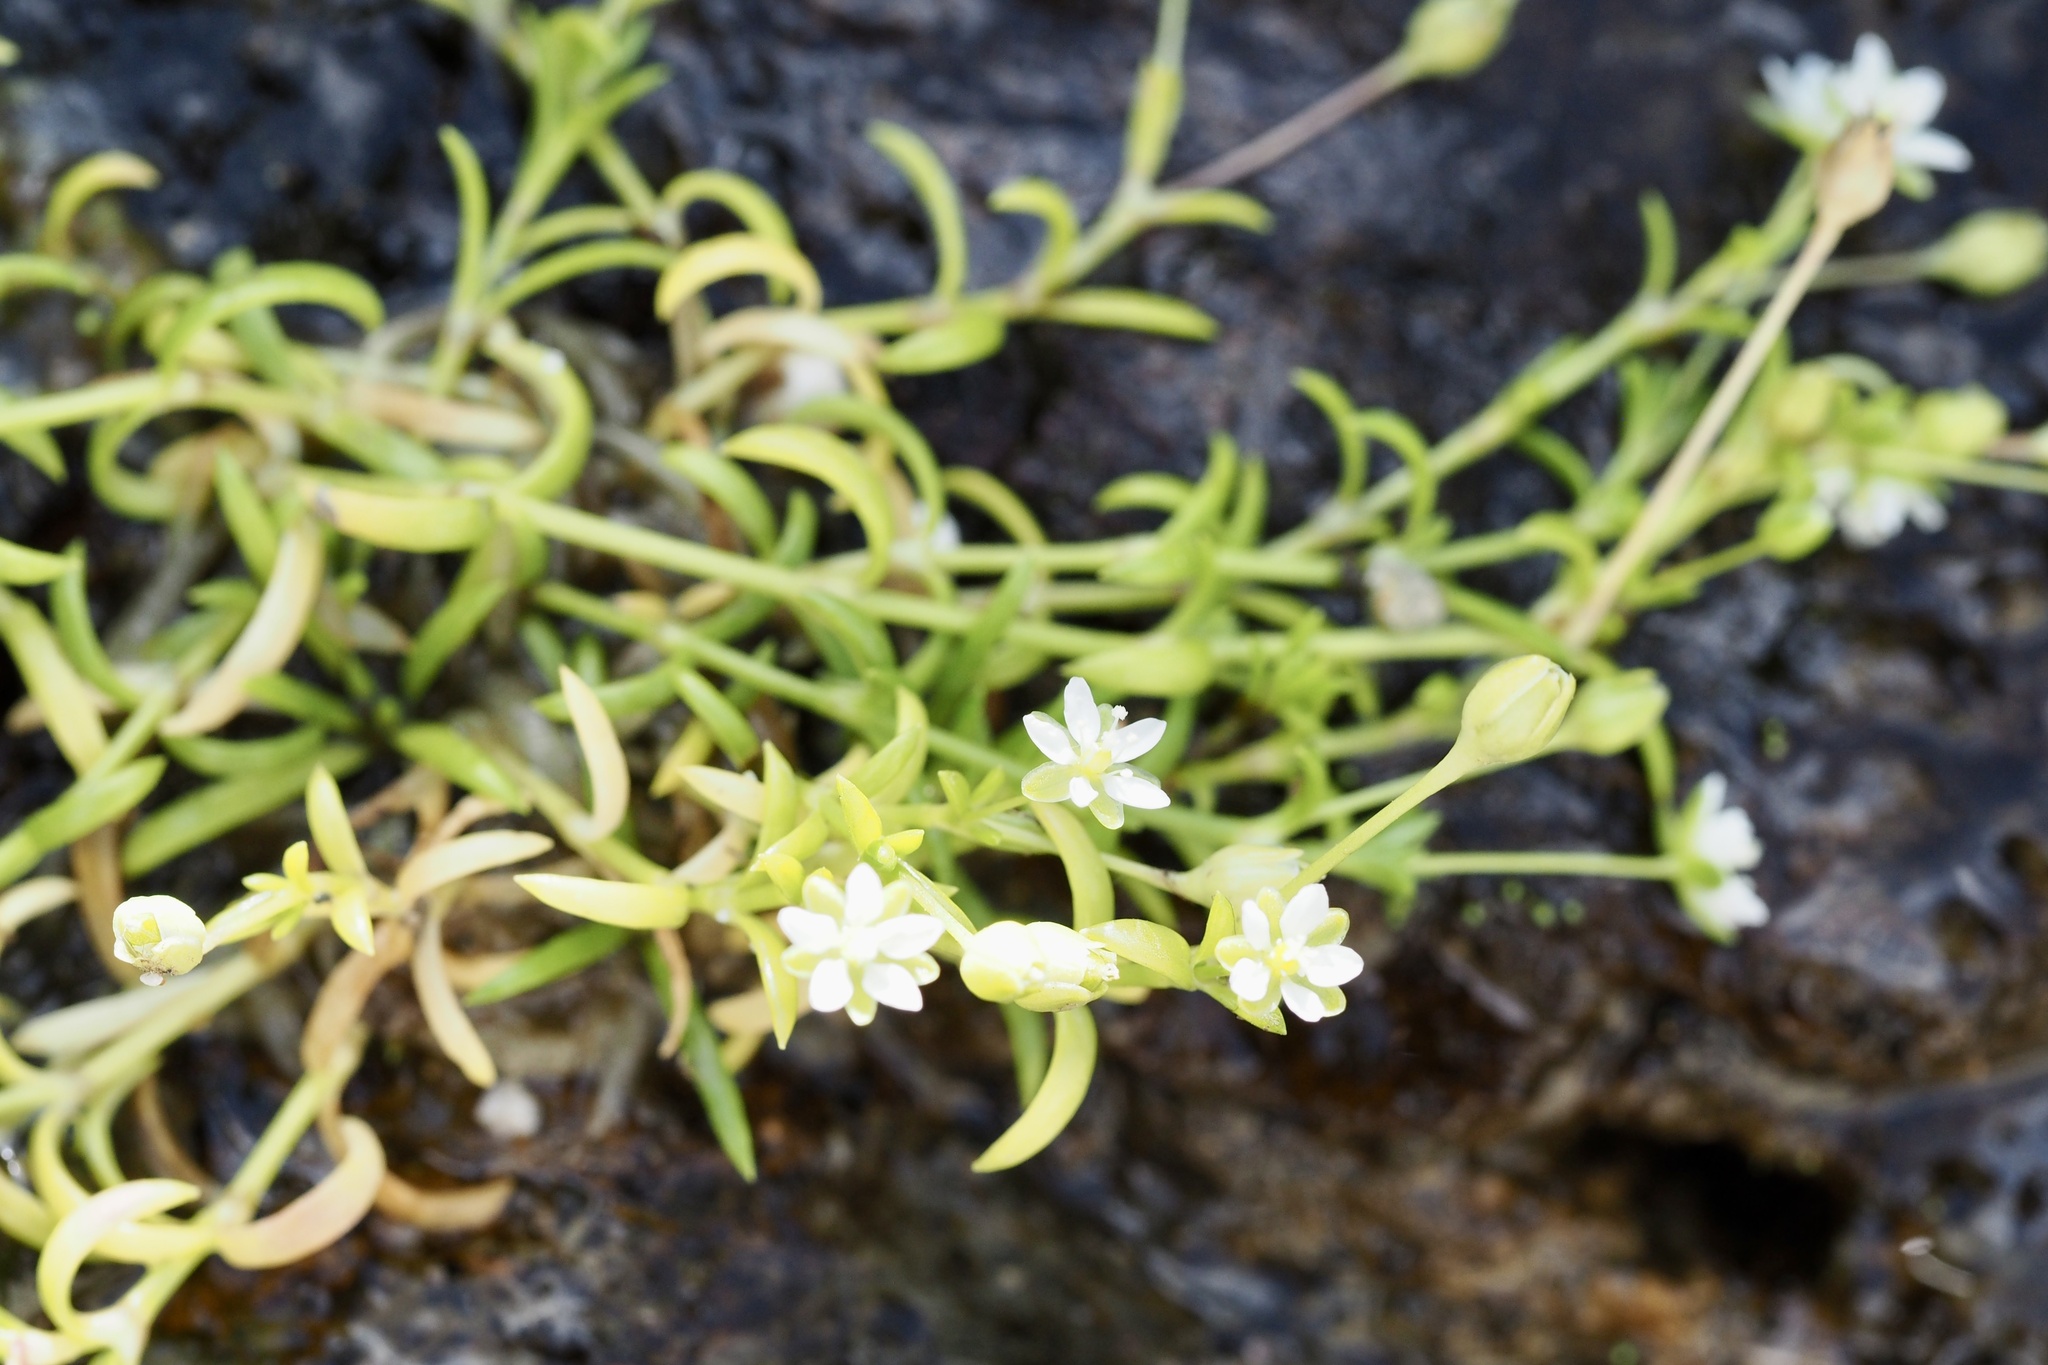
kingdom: Plantae
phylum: Tracheophyta
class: Magnoliopsida
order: Caryophyllales
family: Caryophyllaceae
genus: Sagina
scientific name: Sagina maxima
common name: Coastal pearlwort
